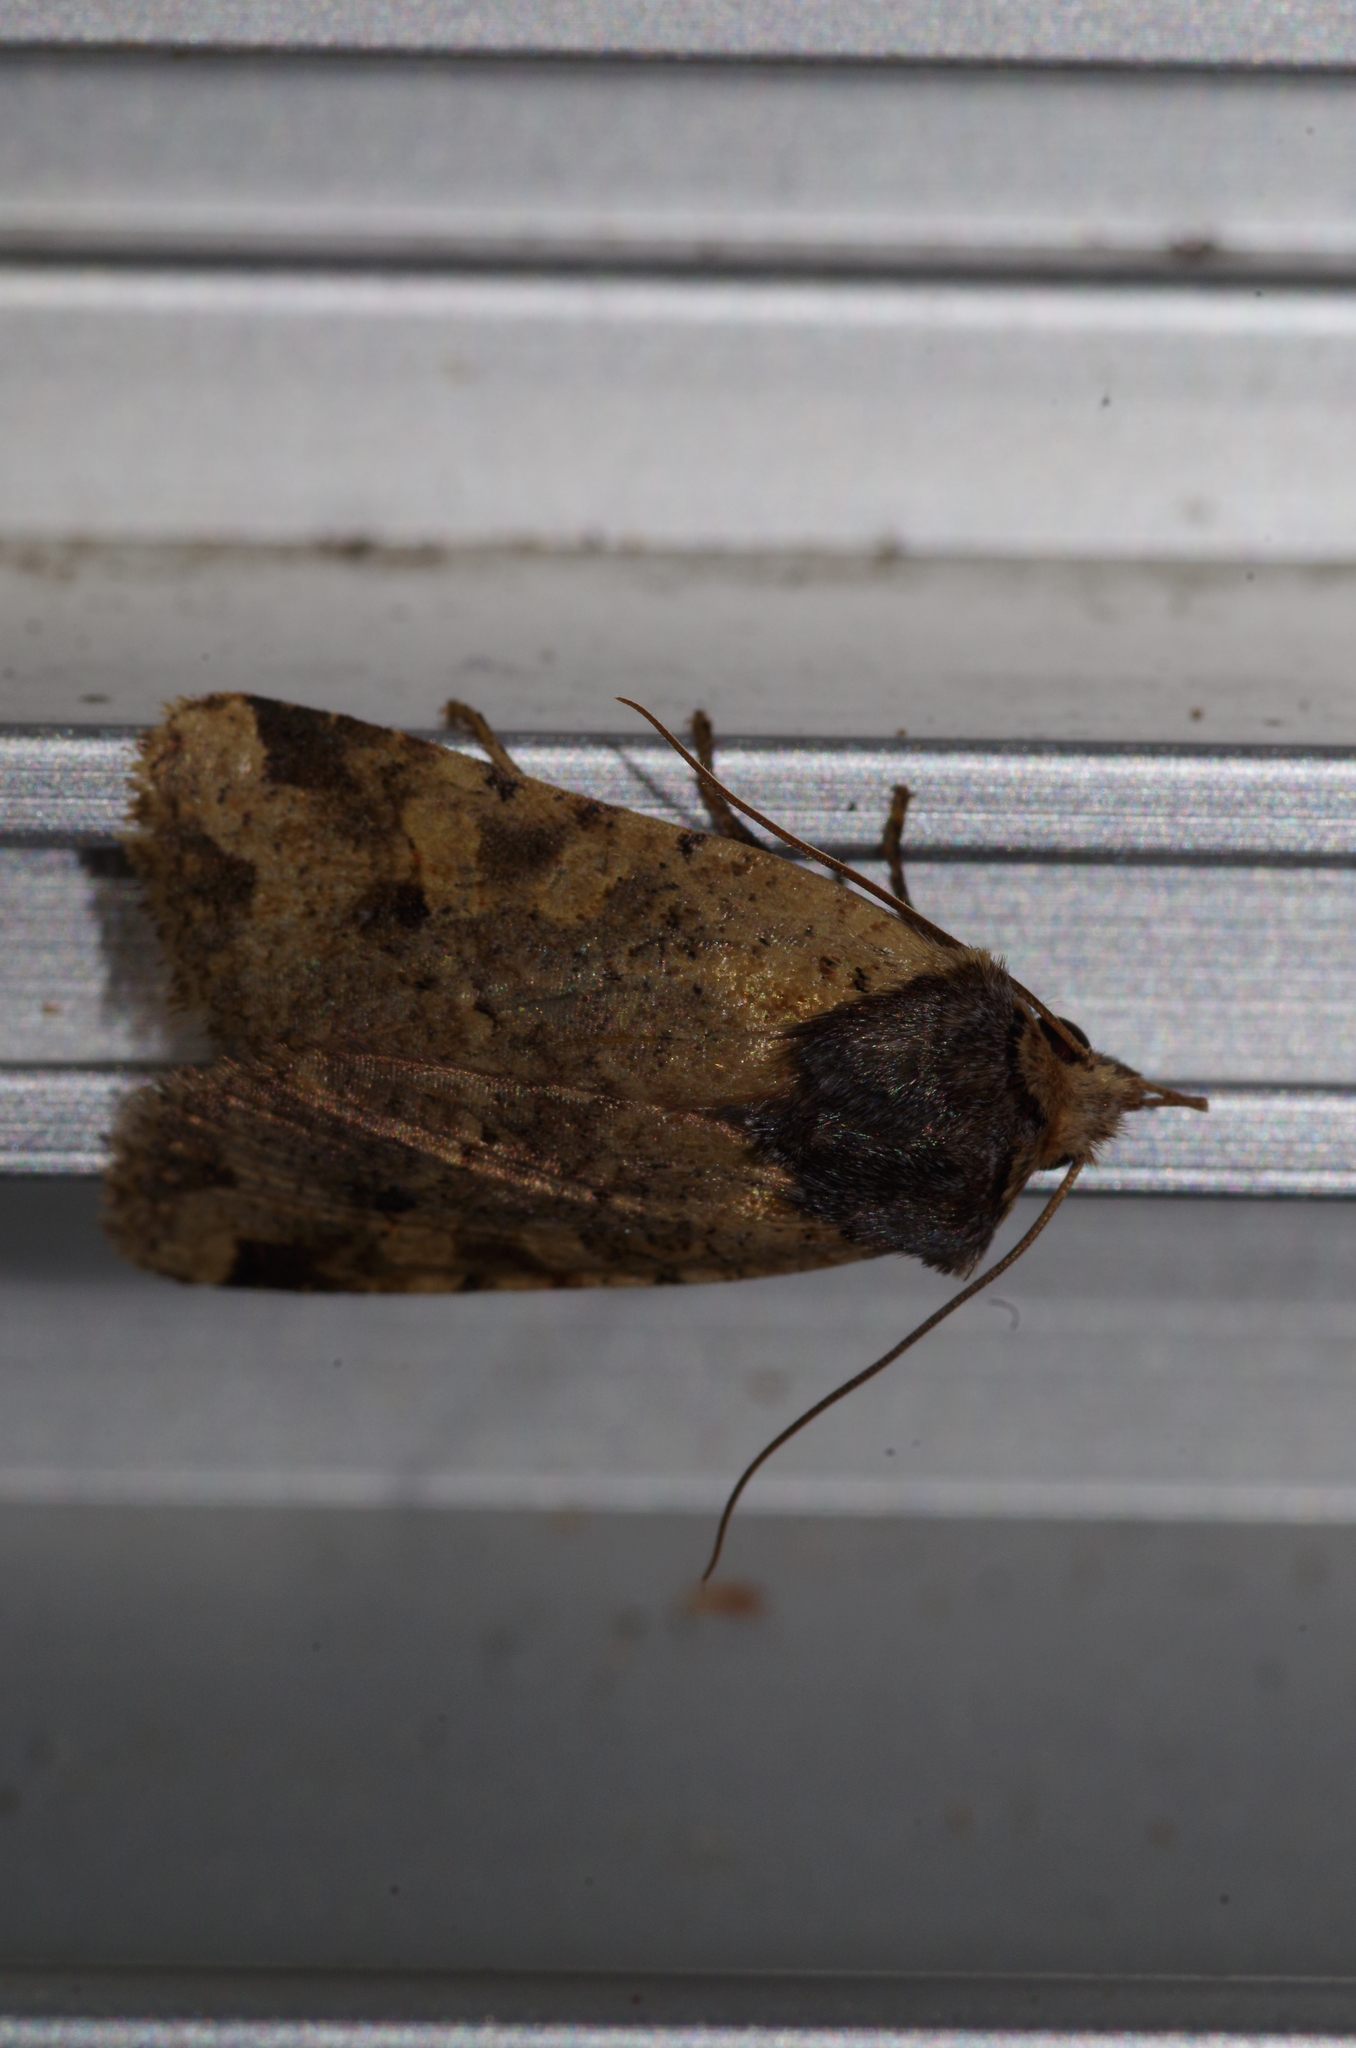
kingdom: Animalia
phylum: Arthropoda
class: Insecta
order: Lepidoptera
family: Noctuidae
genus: Rhynchaglaea
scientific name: Rhynchaglaea scitula
